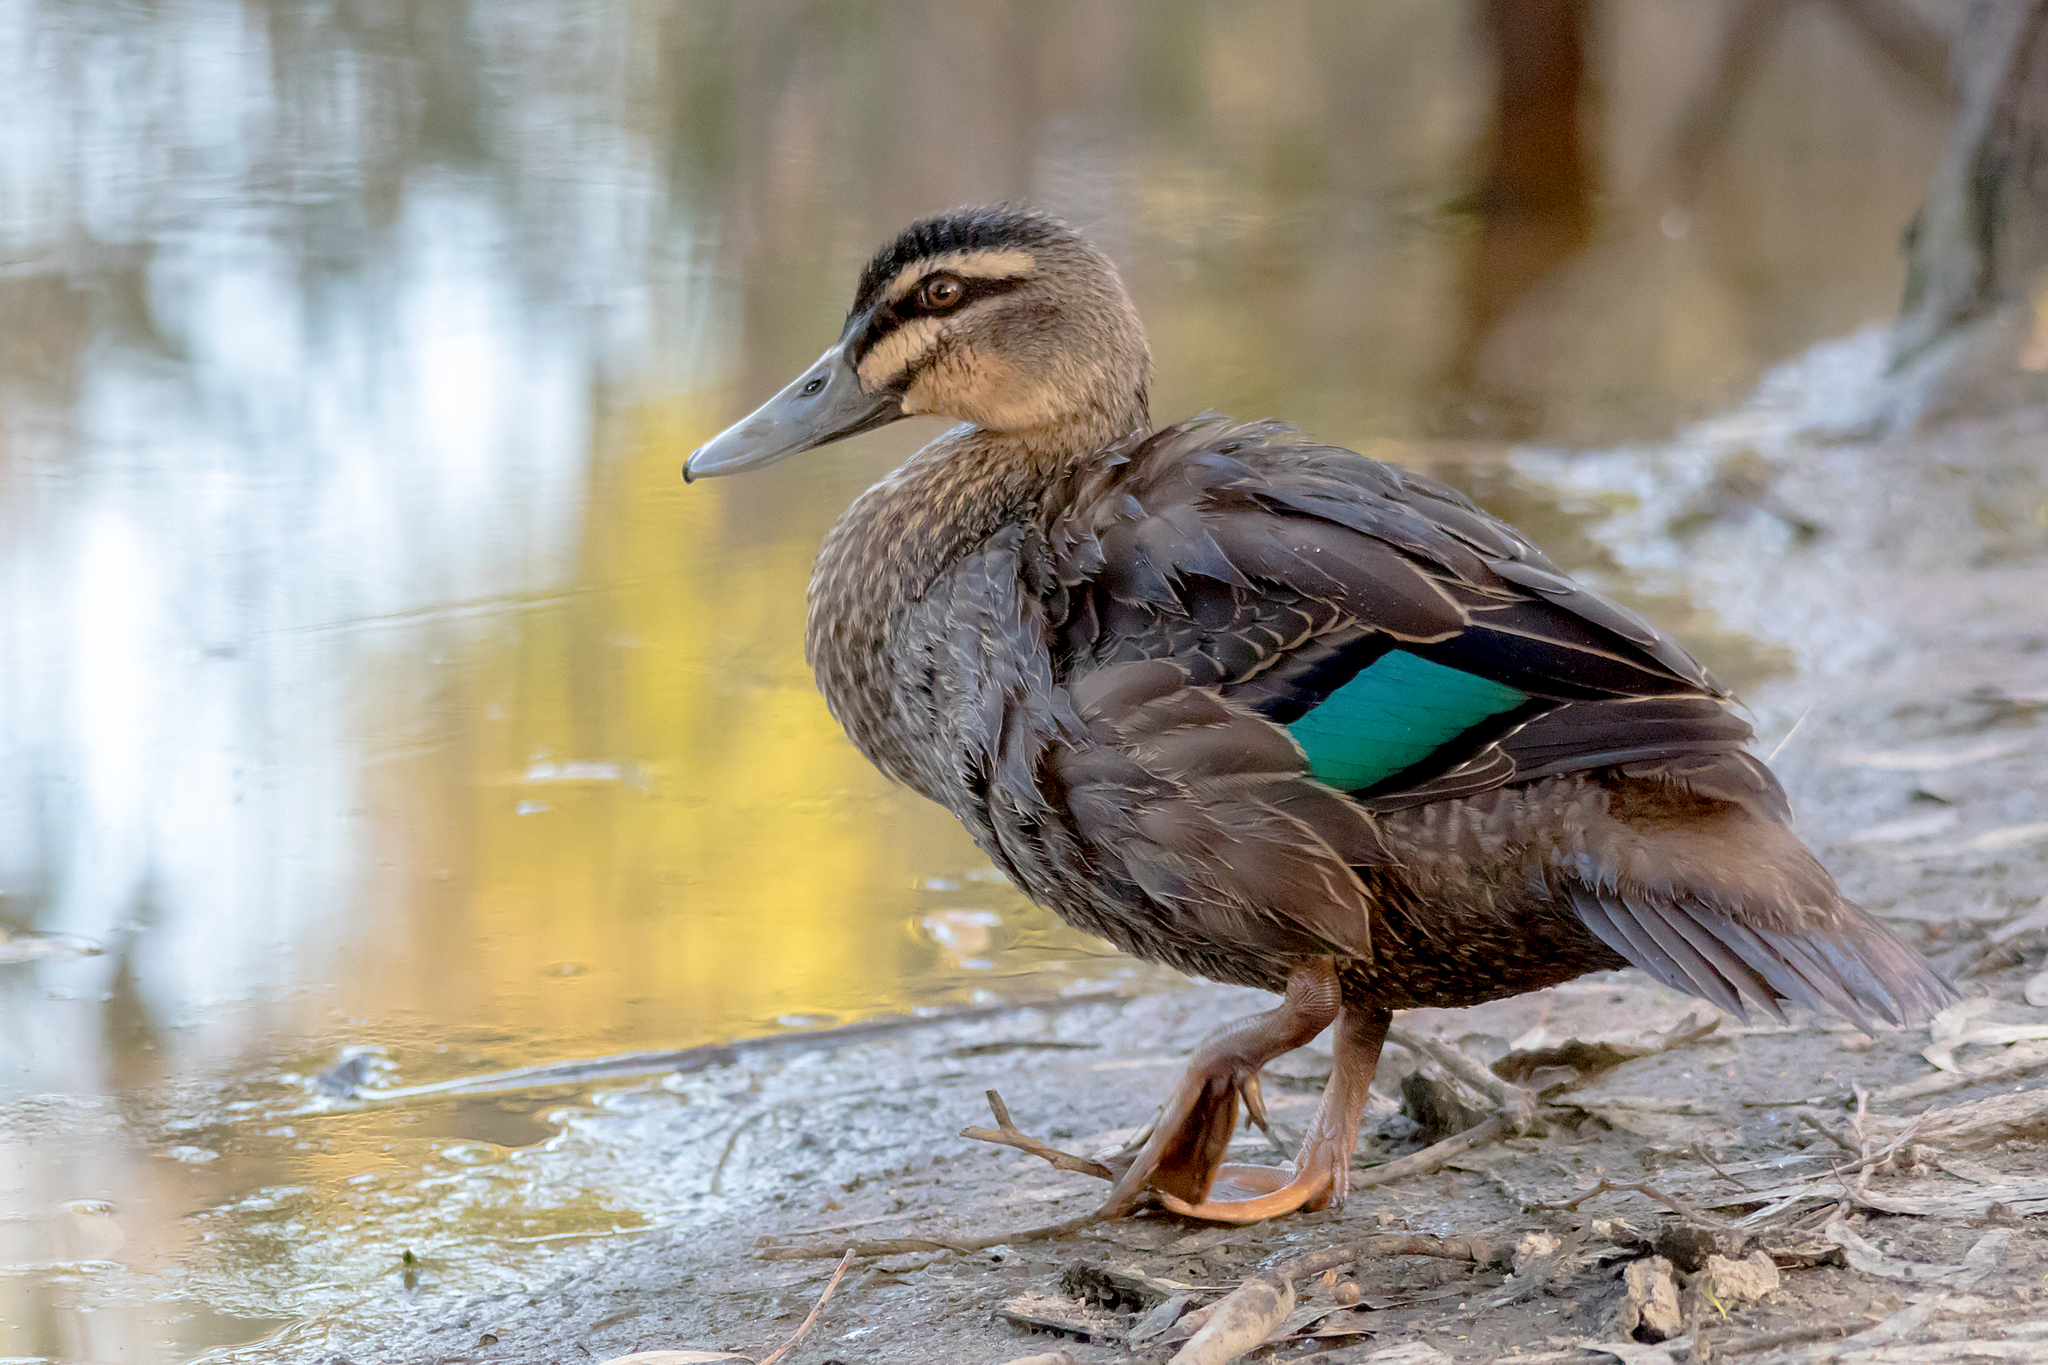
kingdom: Animalia
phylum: Chordata
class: Aves
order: Anseriformes
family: Anatidae
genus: Anas
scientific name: Anas superciliosa
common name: Pacific black duck
